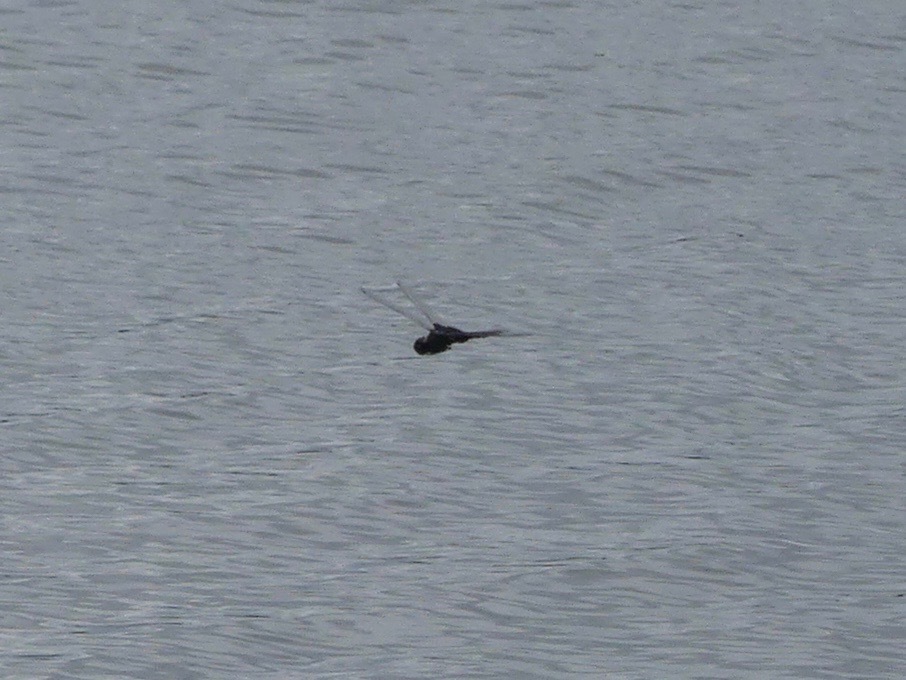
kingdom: Animalia
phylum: Arthropoda
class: Insecta
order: Odonata
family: Libellulidae
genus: Tramea
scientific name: Tramea lacerata
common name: Black saddlebags
